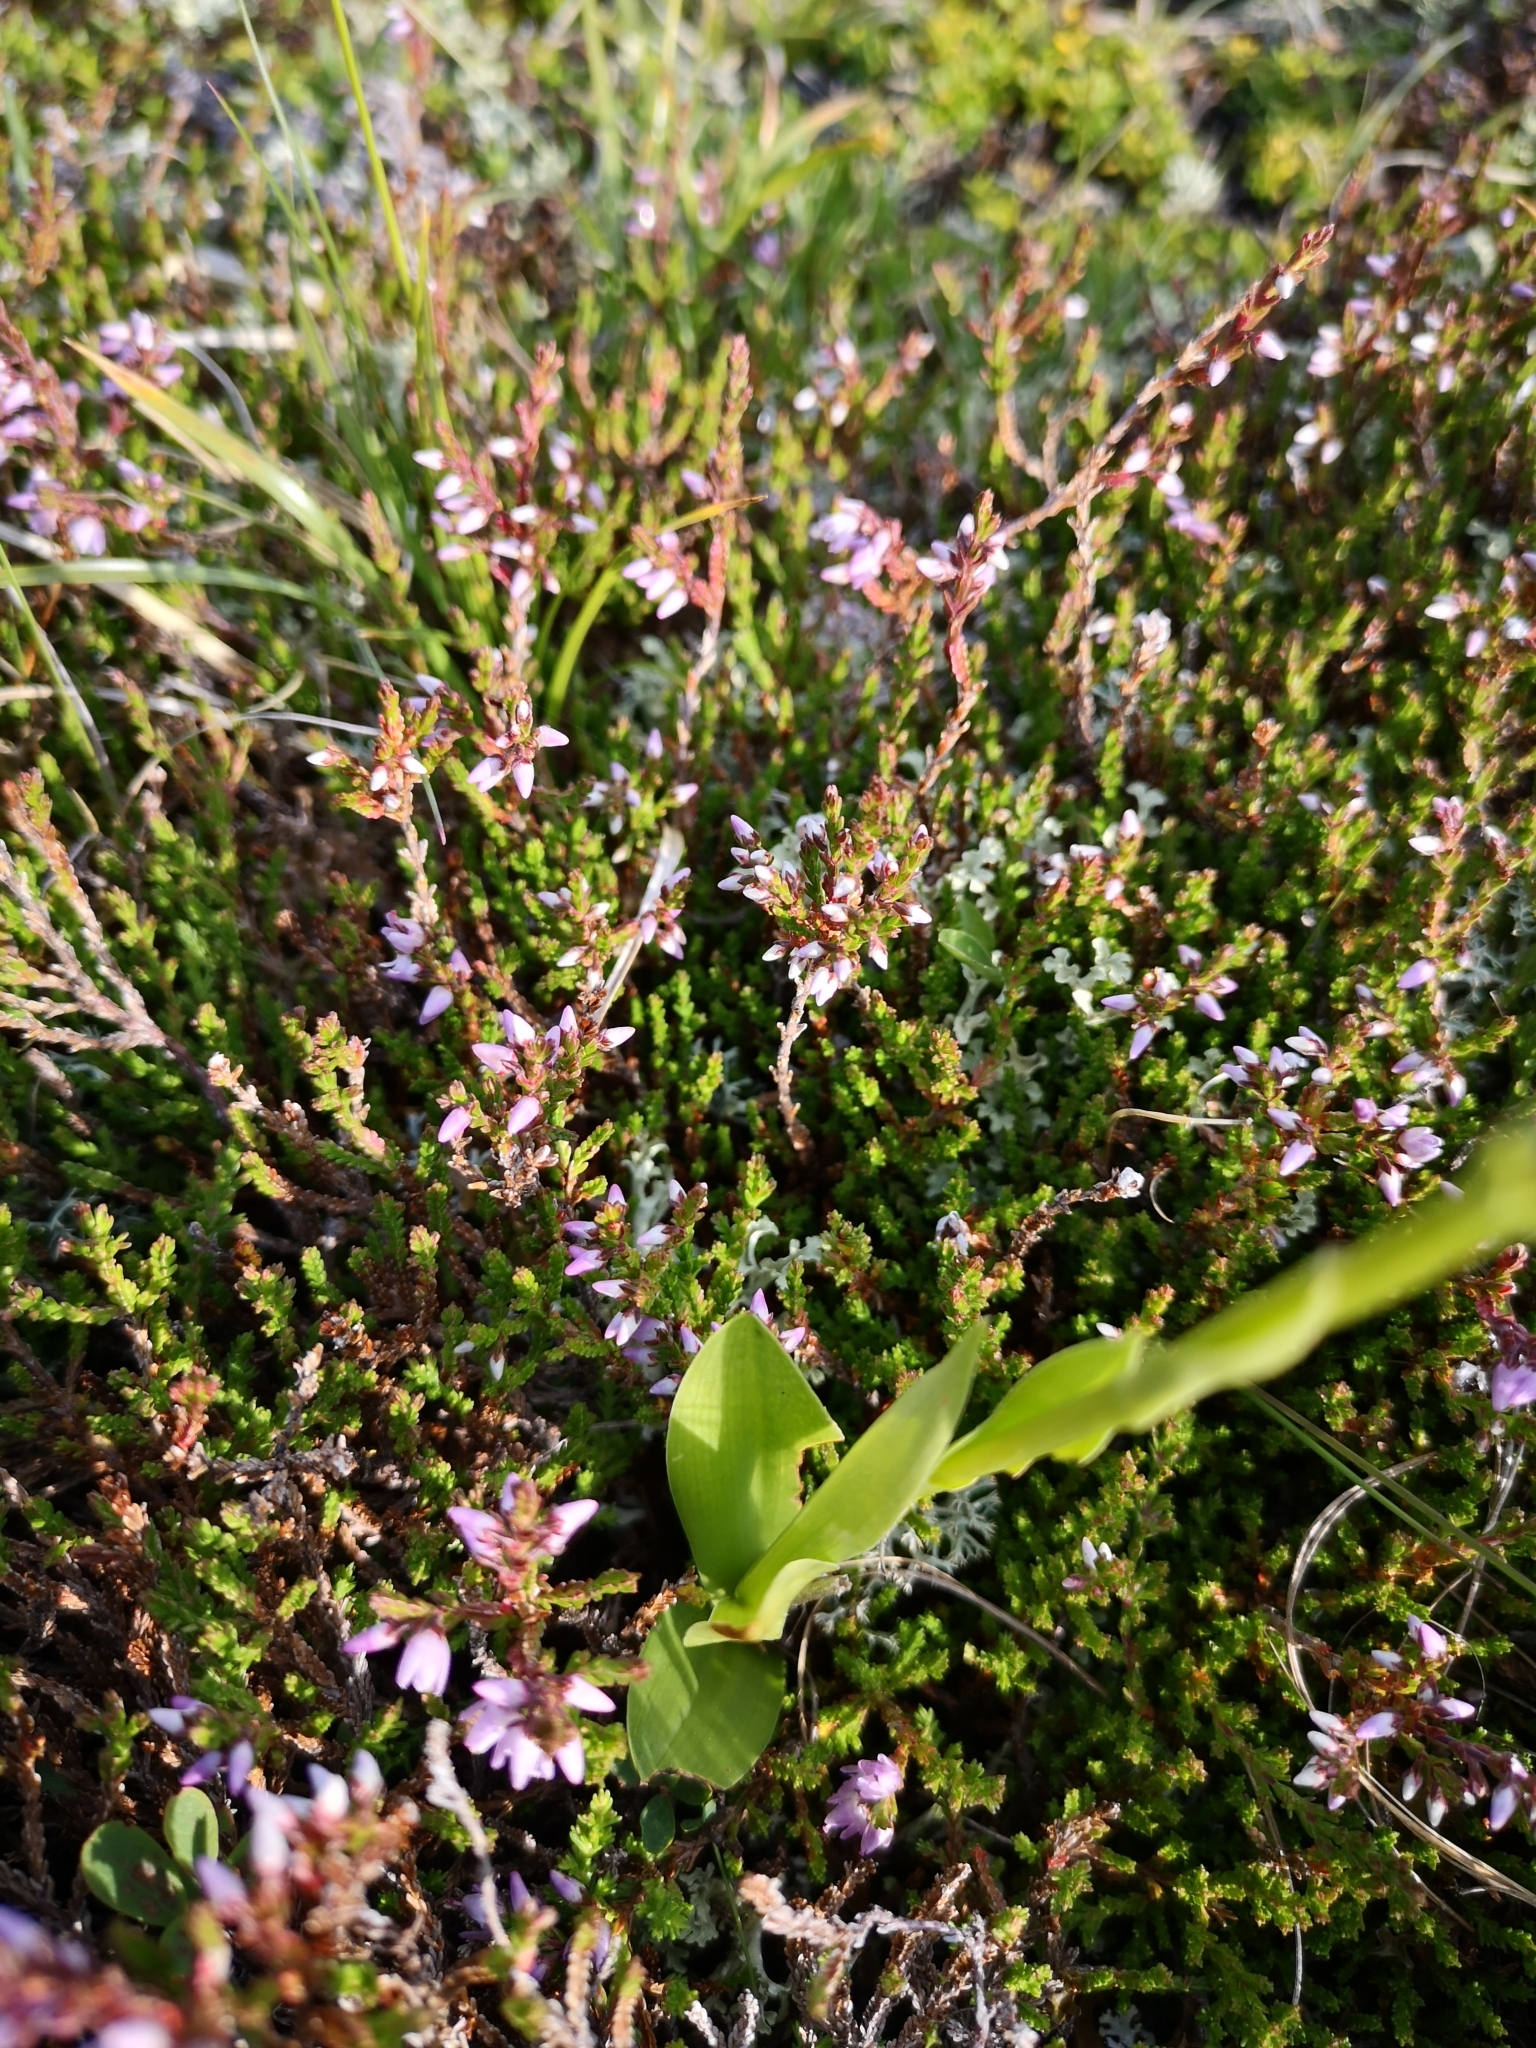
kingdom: Plantae
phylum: Tracheophyta
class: Liliopsida
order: Asparagales
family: Orchidaceae
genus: Pseudorchis
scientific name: Pseudorchis albida
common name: Small-white orchid
